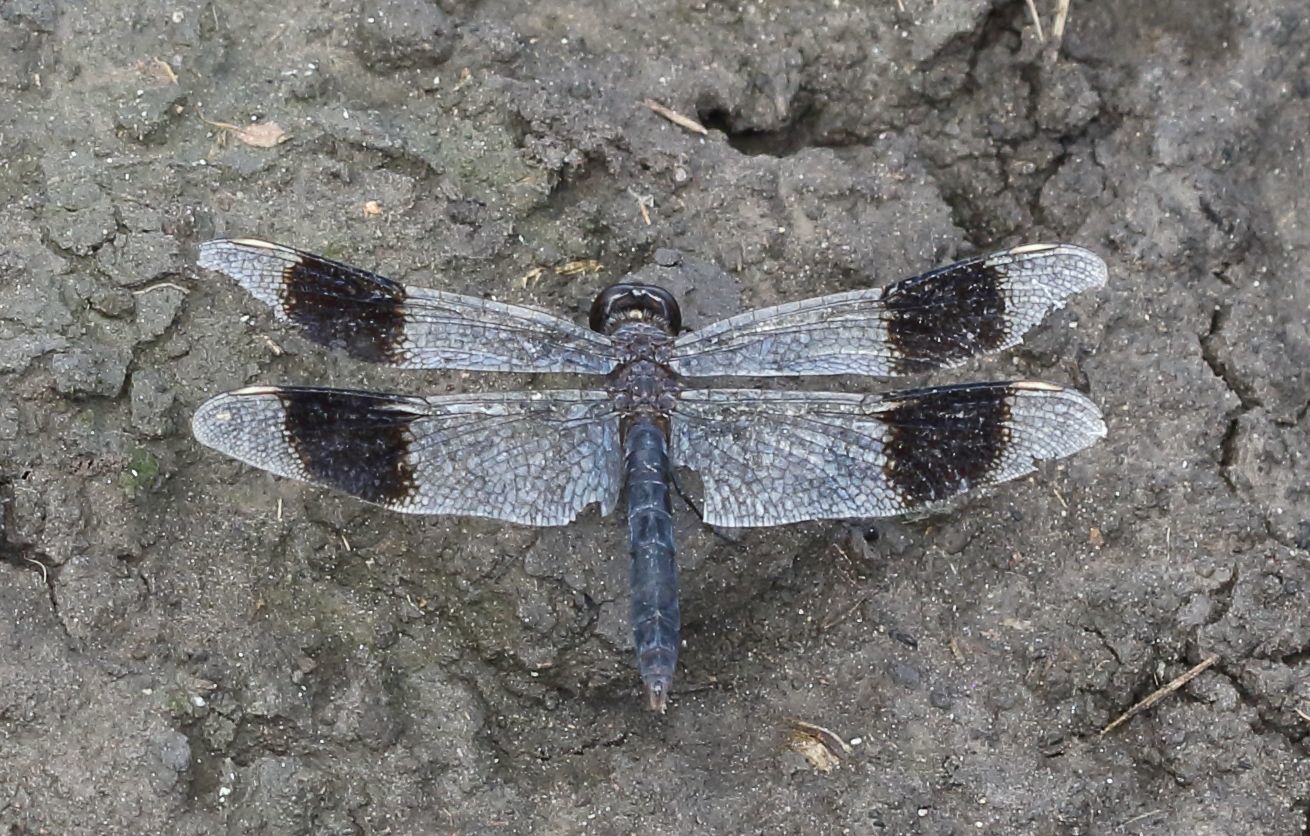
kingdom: Animalia
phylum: Arthropoda
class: Insecta
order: Odonata
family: Libellulidae
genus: Brachythemis
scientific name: Brachythemis leucosticta
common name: Banded groundling
